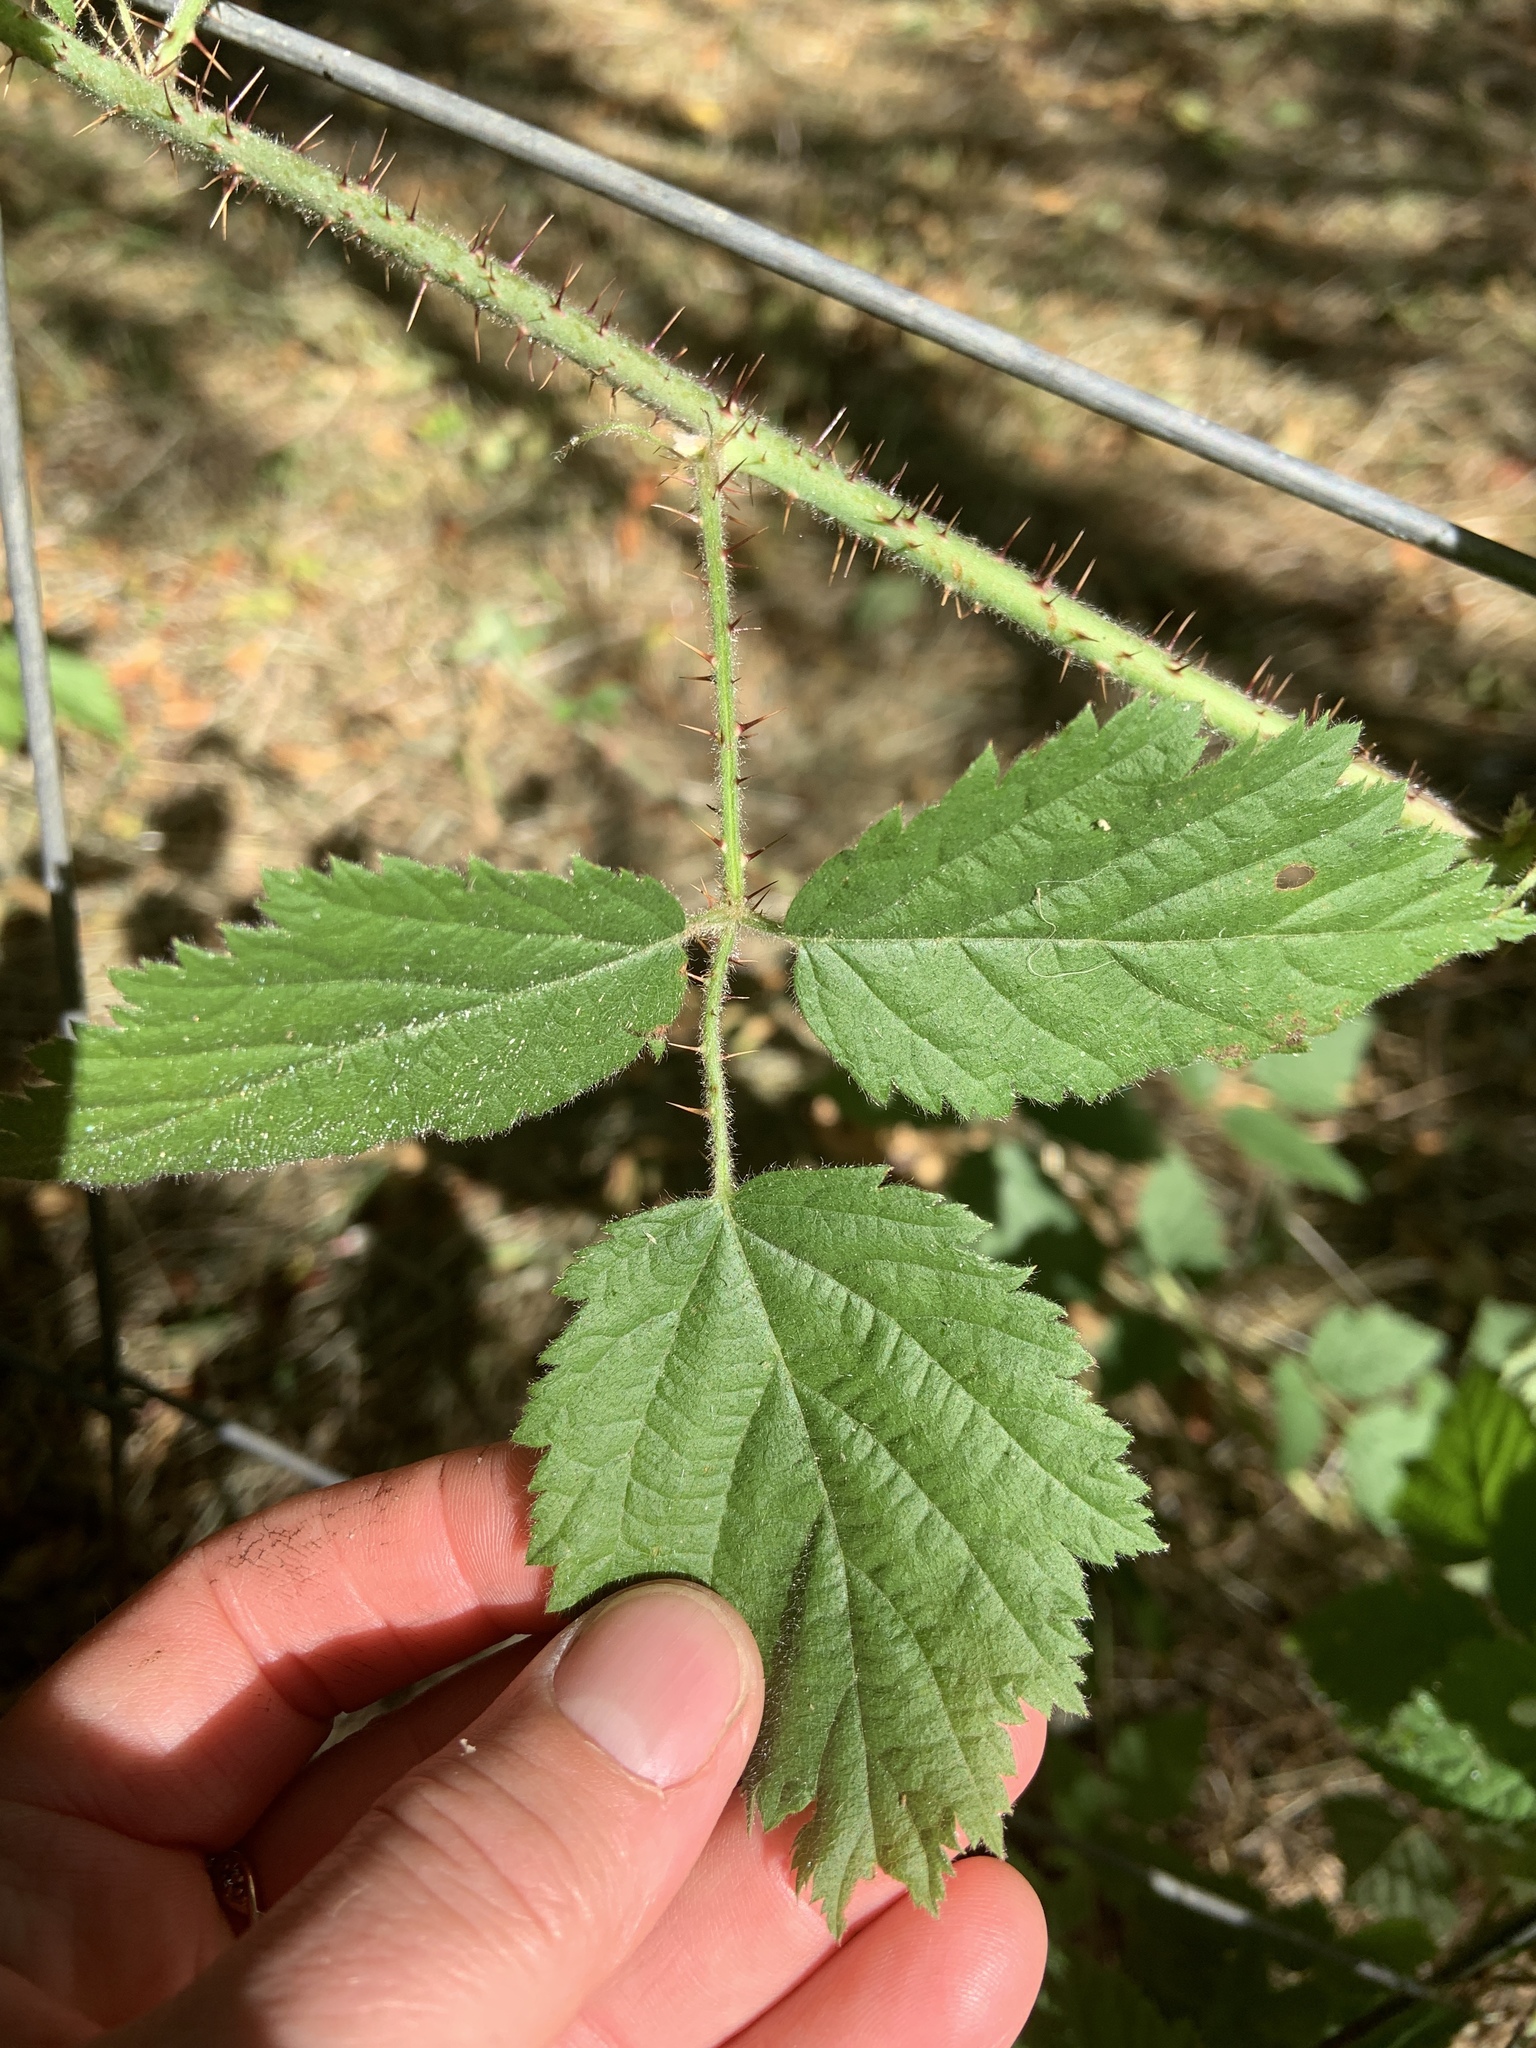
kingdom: Plantae
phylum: Tracheophyta
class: Magnoliopsida
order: Rosales
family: Rosaceae
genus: Rubus
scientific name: Rubus ursinus
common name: Pacific blackberry
